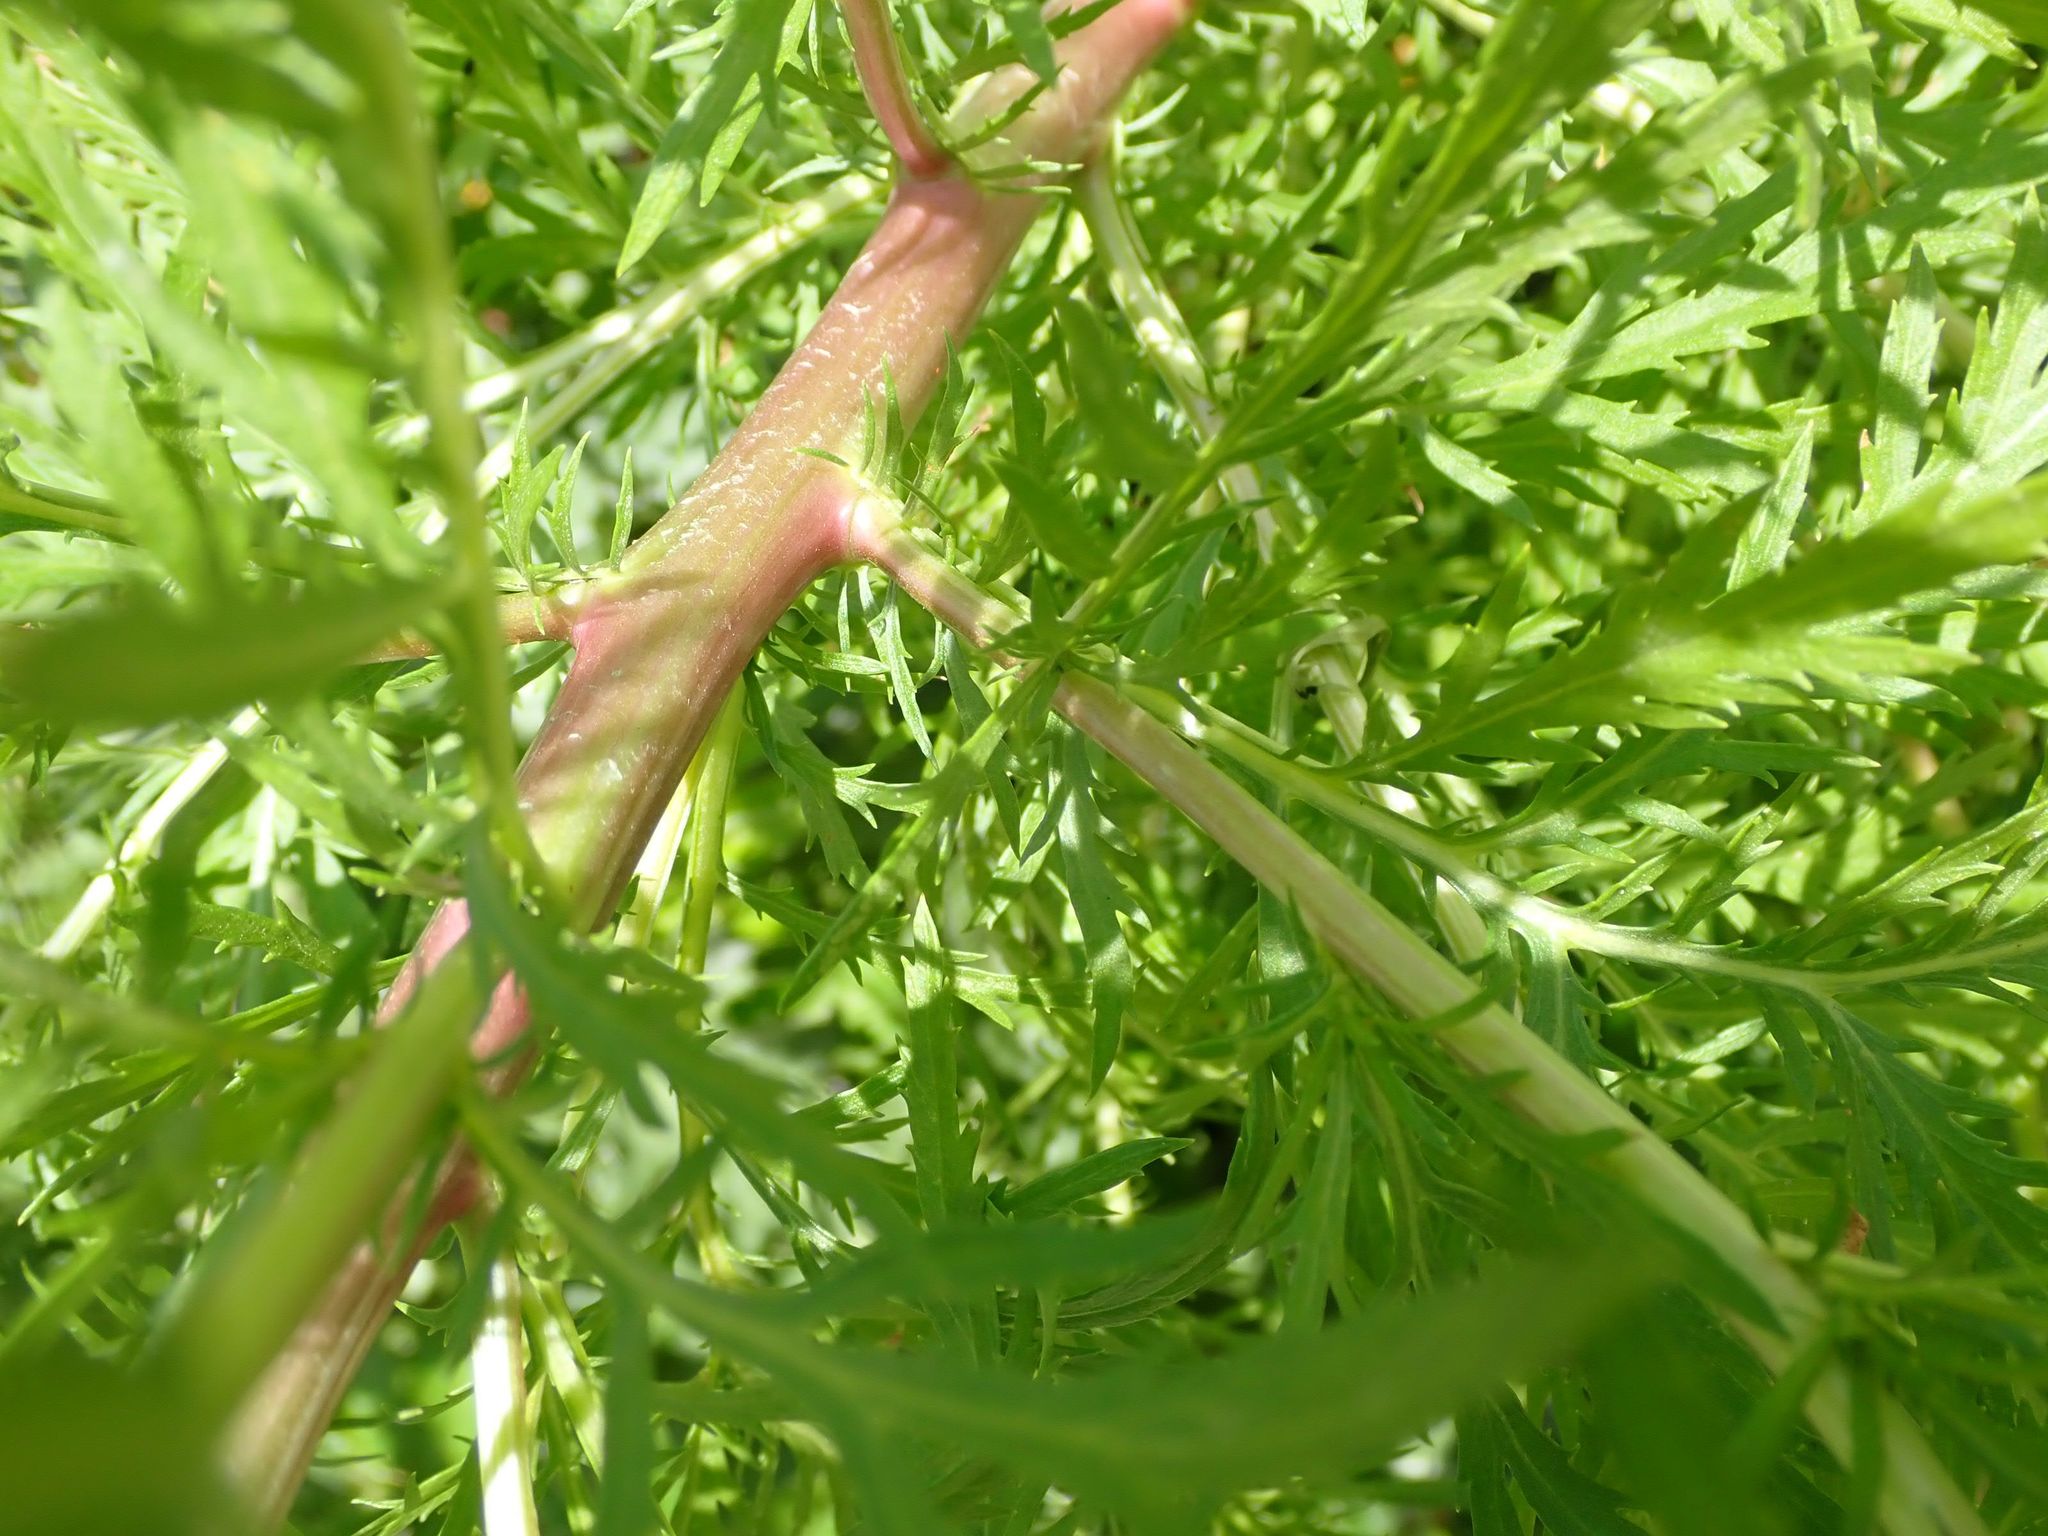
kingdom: Plantae
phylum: Tracheophyta
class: Magnoliopsida
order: Asterales
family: Asteraceae
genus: Artemisia
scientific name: Artemisia biennis
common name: Biennial wormwood
